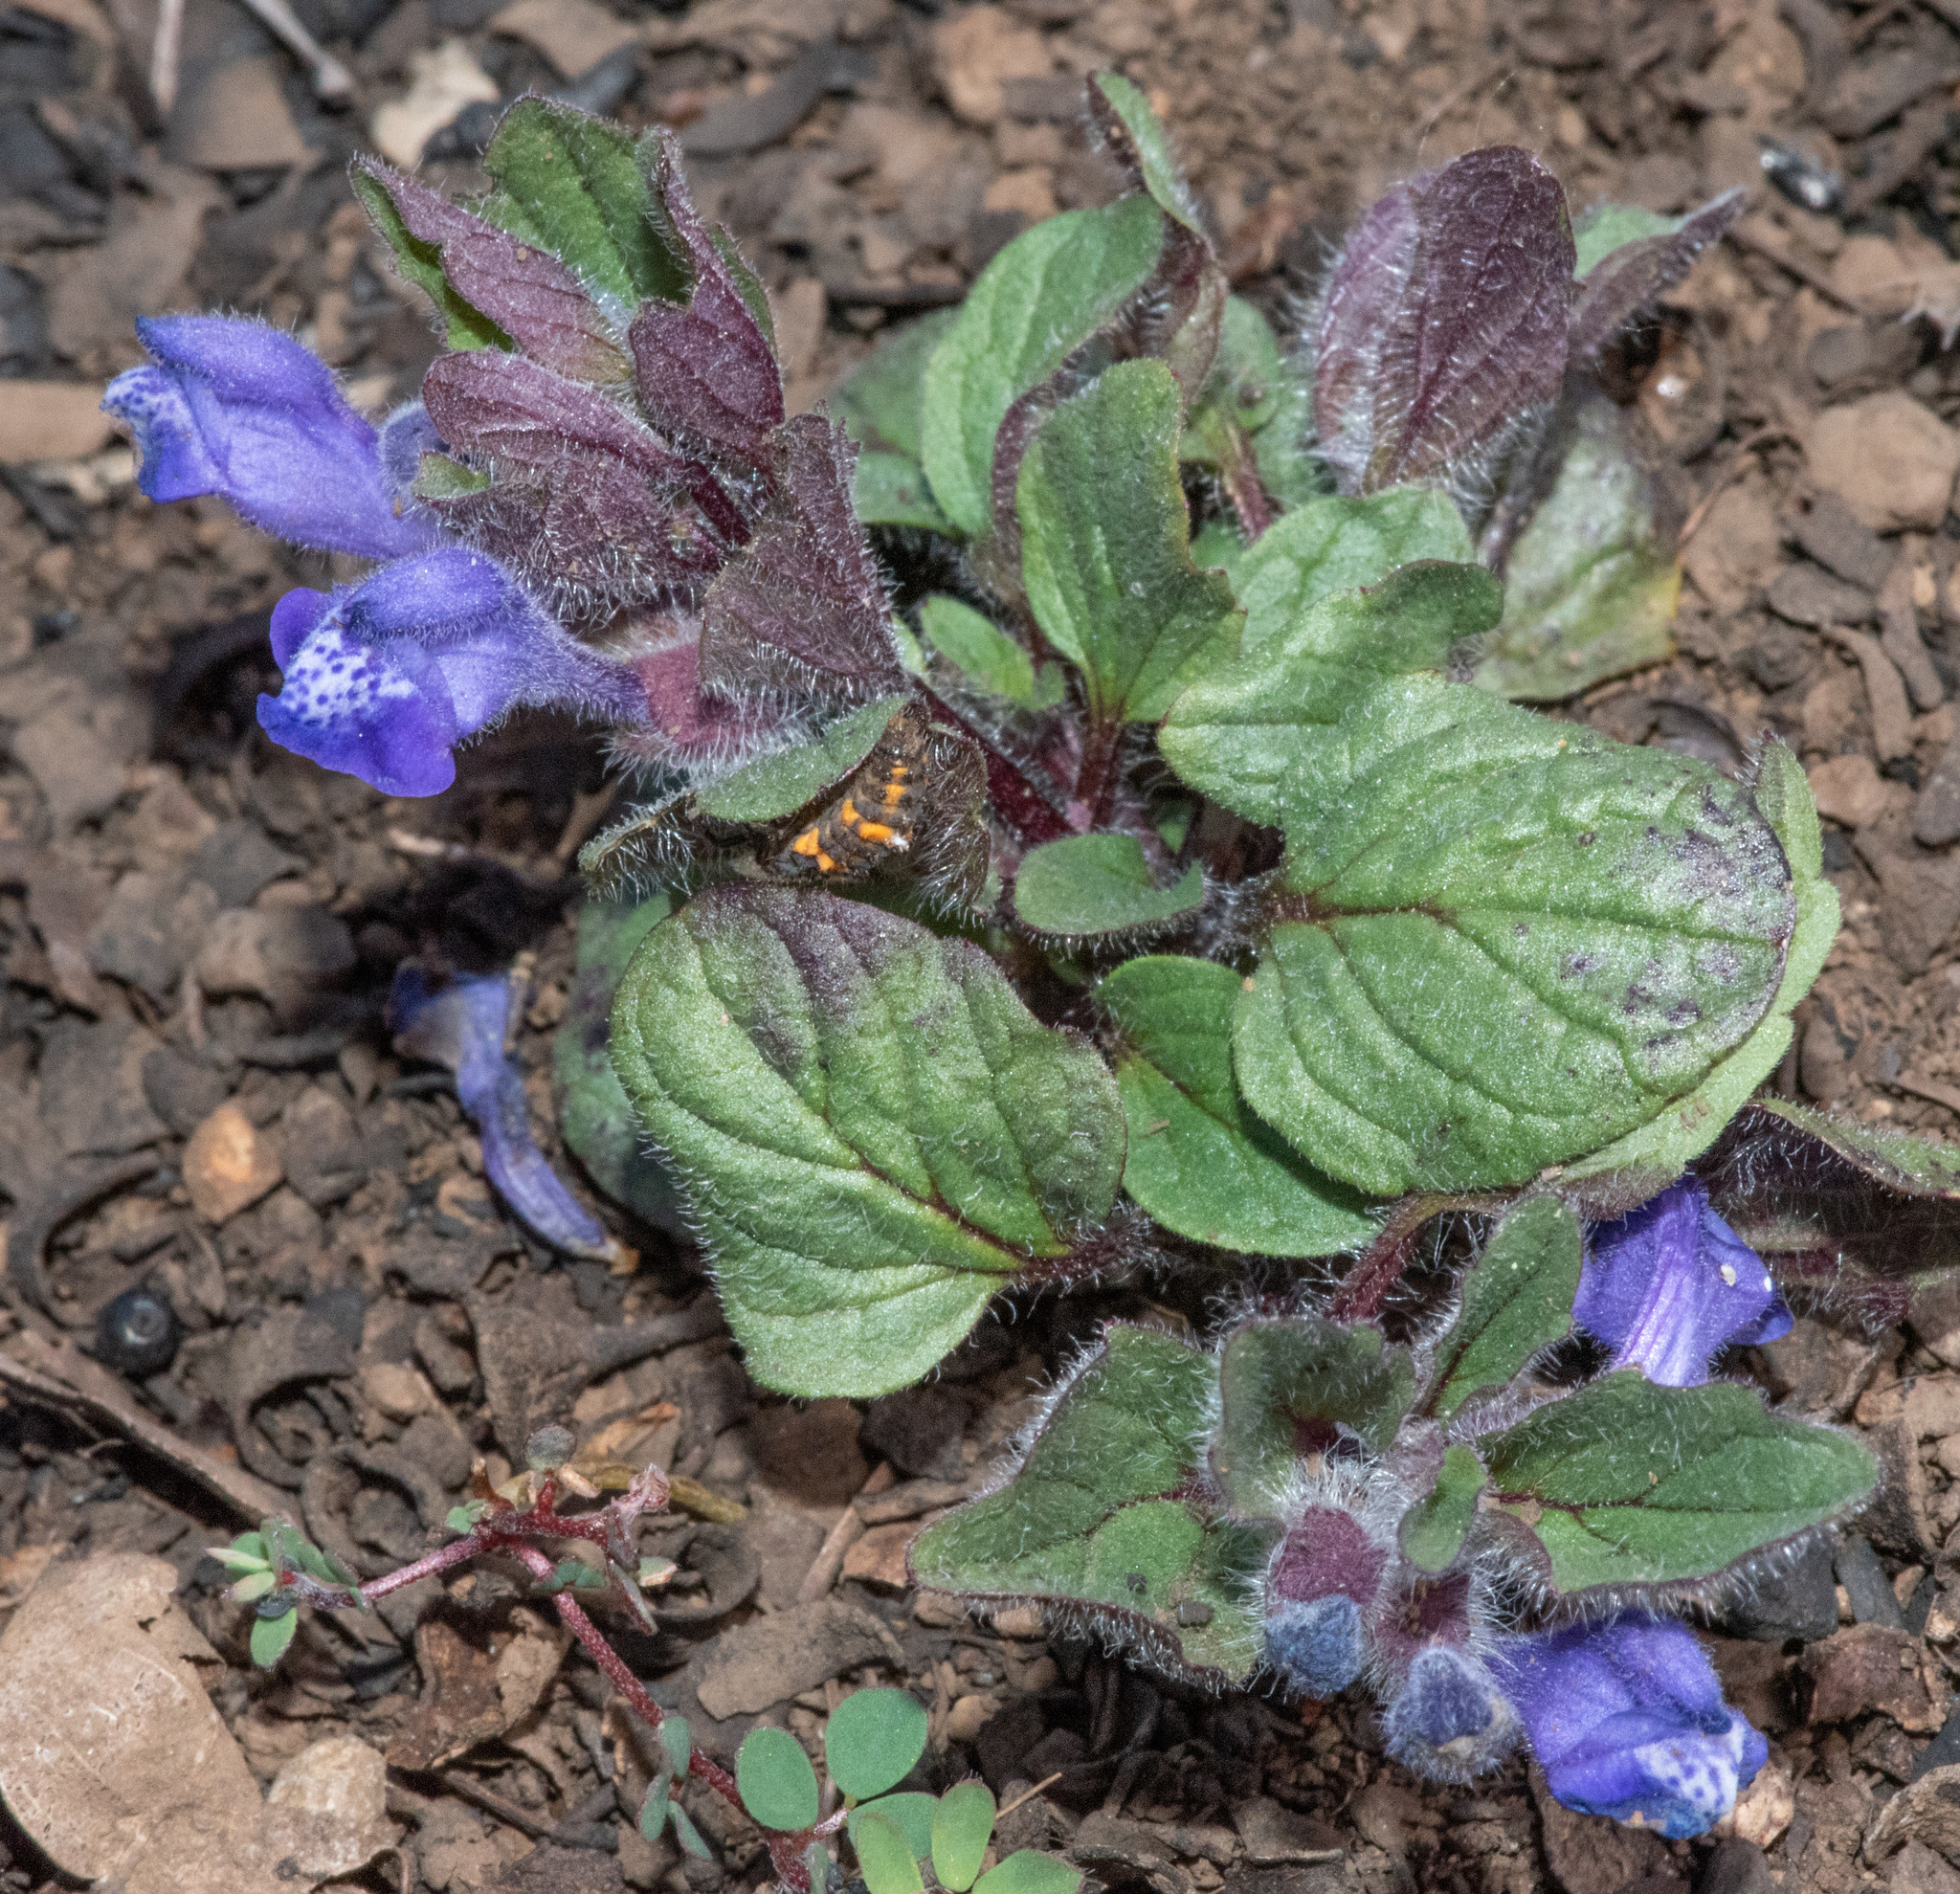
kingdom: Plantae
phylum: Tracheophyta
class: Magnoliopsida
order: Lamiales
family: Lamiaceae
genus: Scutellaria
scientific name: Scutellaria tuberosa
